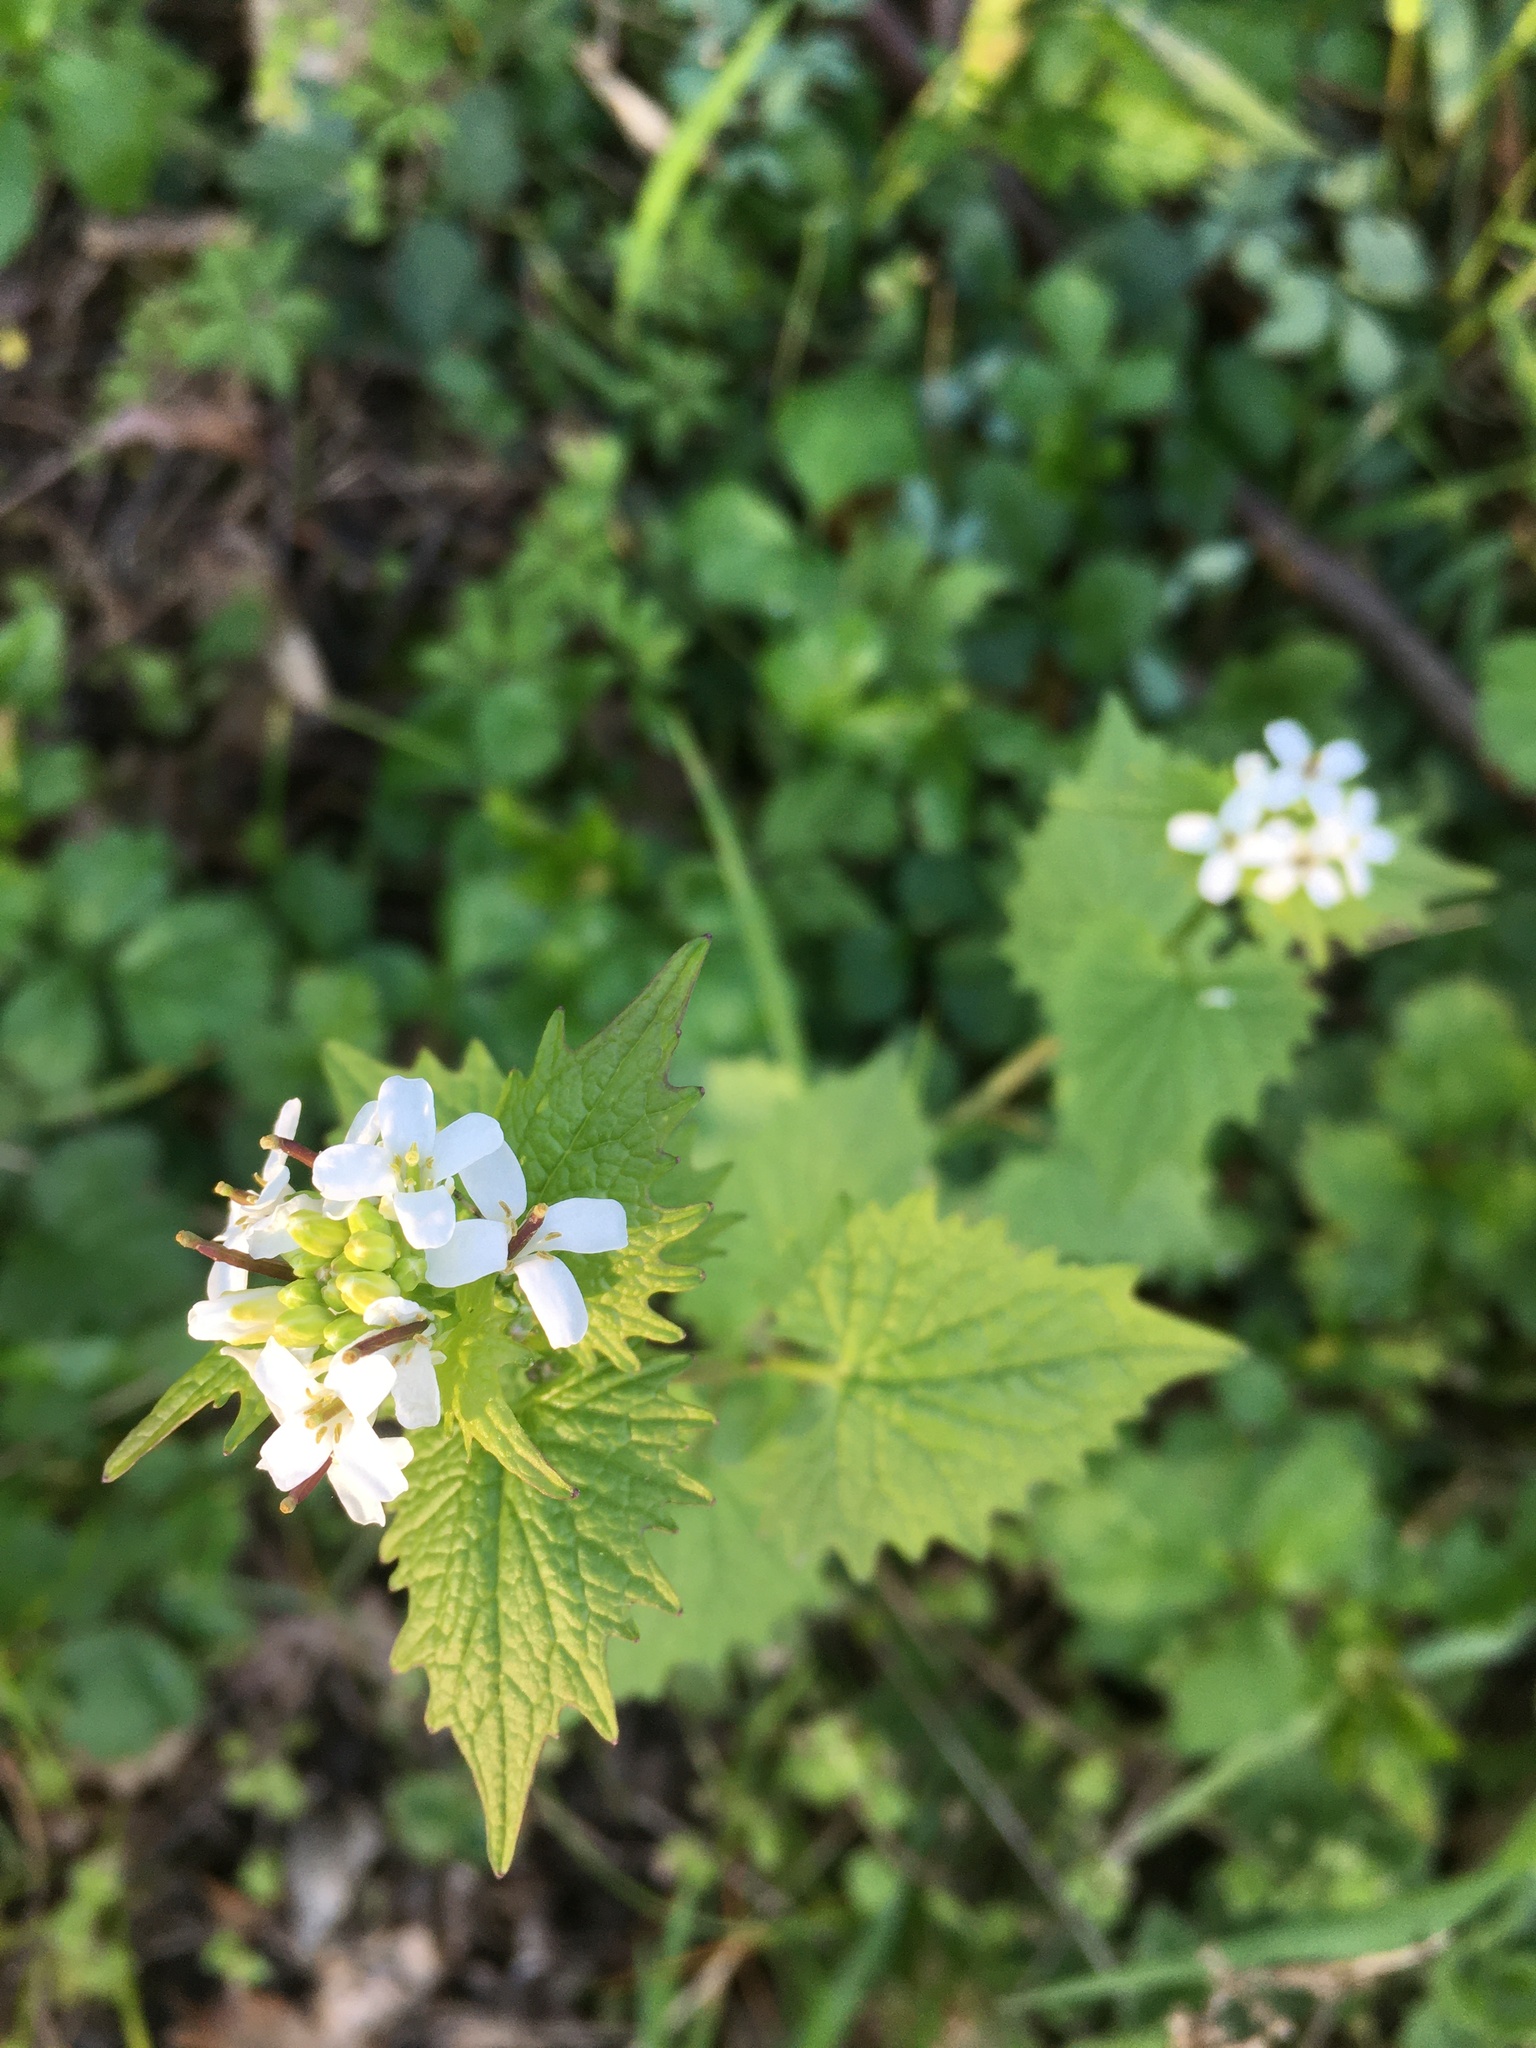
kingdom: Plantae
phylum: Tracheophyta
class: Magnoliopsida
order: Brassicales
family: Brassicaceae
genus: Alliaria
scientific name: Alliaria petiolata
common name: Garlic mustard
